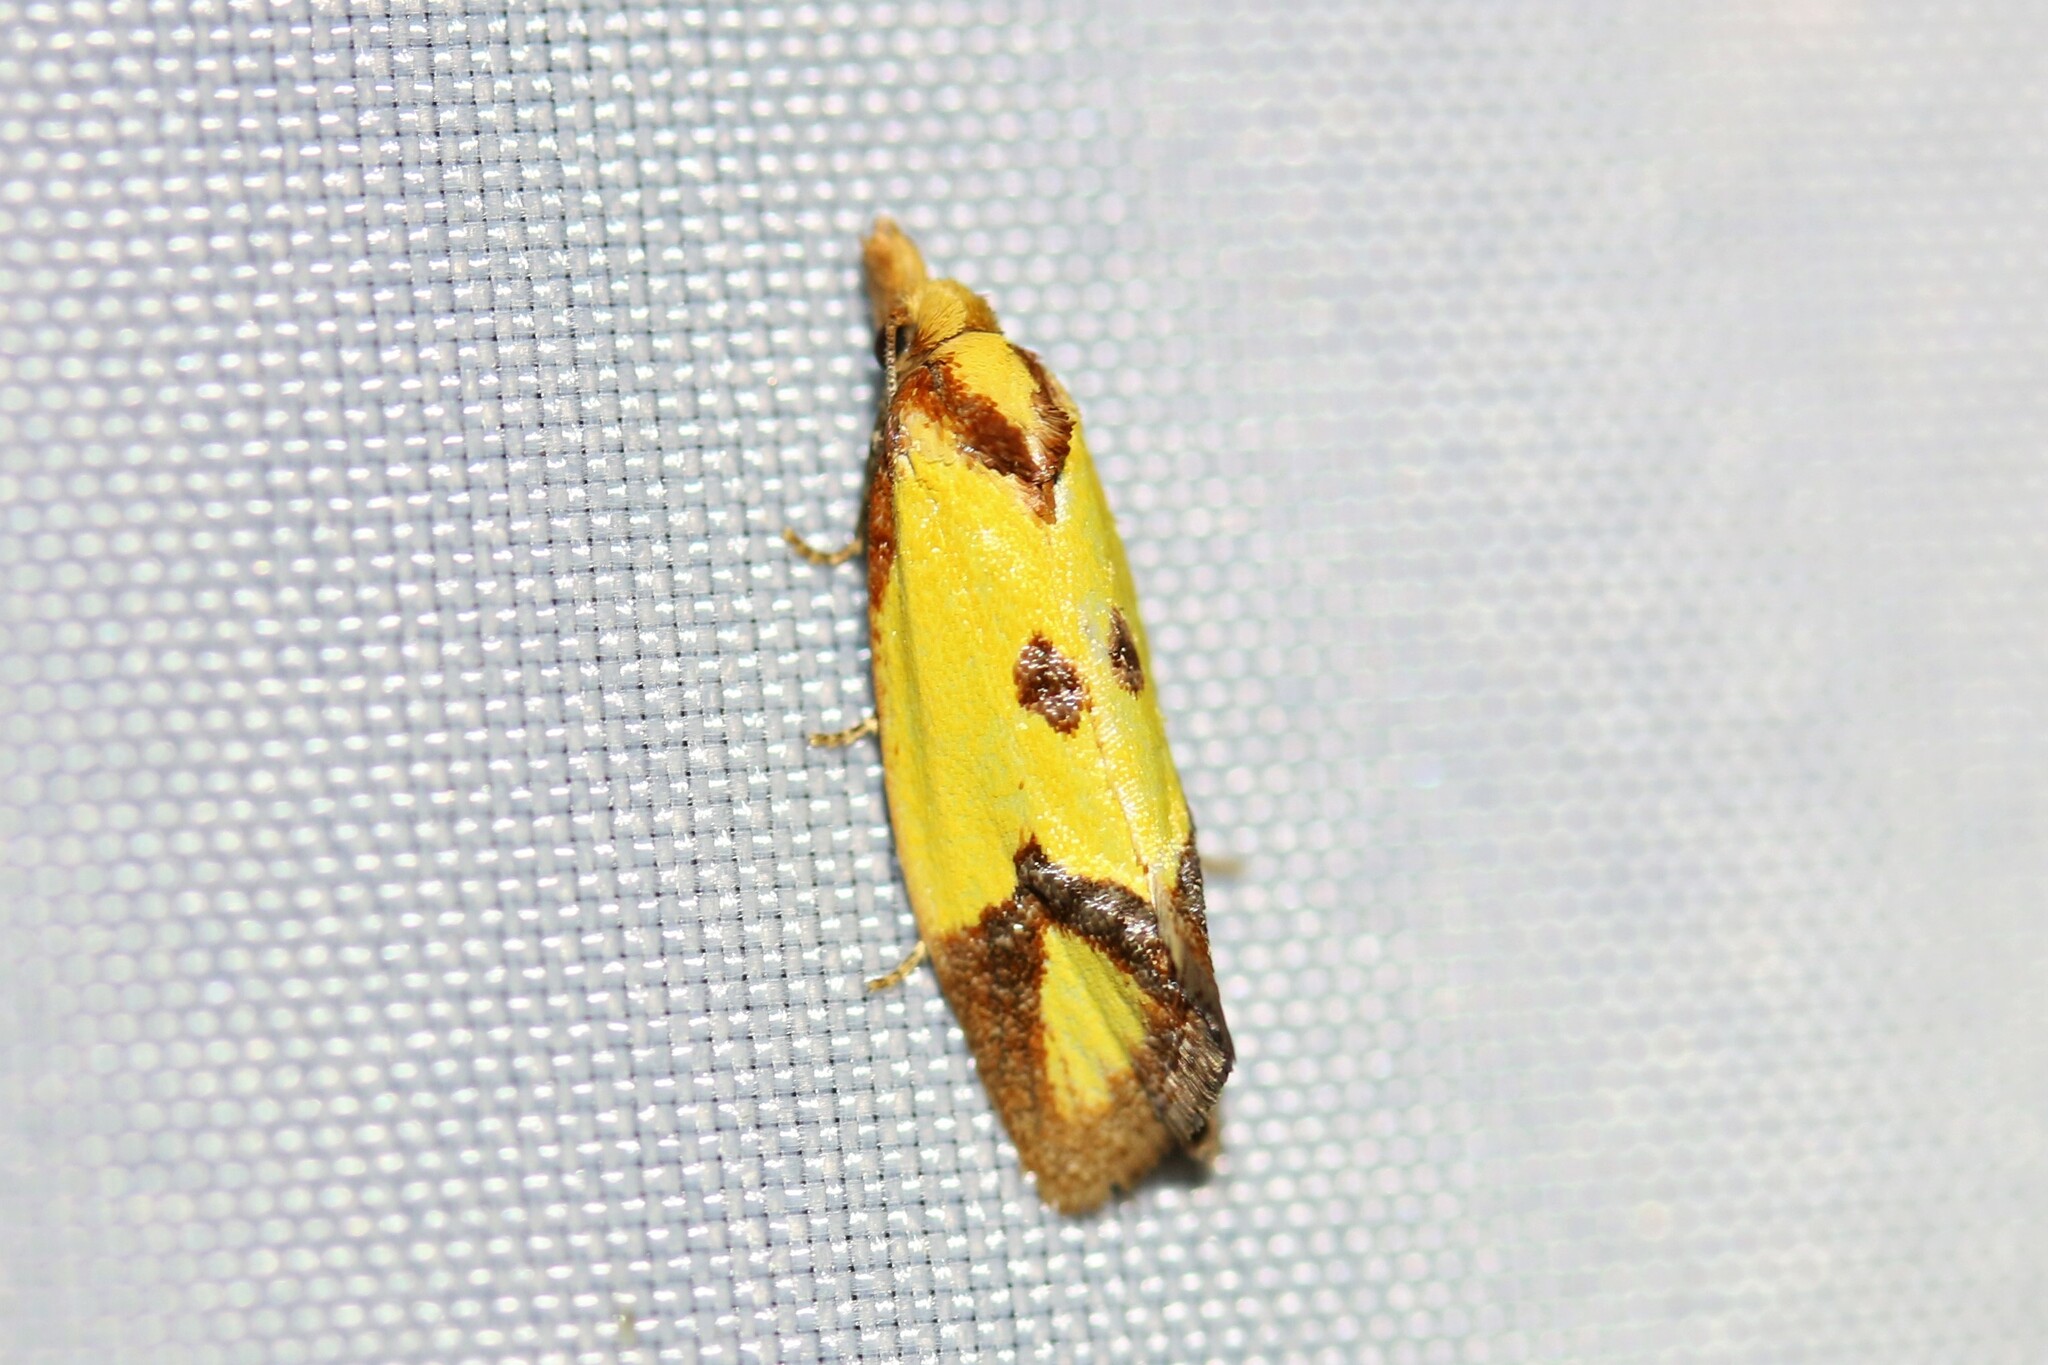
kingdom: Animalia
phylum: Arthropoda
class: Insecta
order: Lepidoptera
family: Tortricidae
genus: Agapeta
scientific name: Agapeta zoegana
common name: Sulfur knapweed root moth
